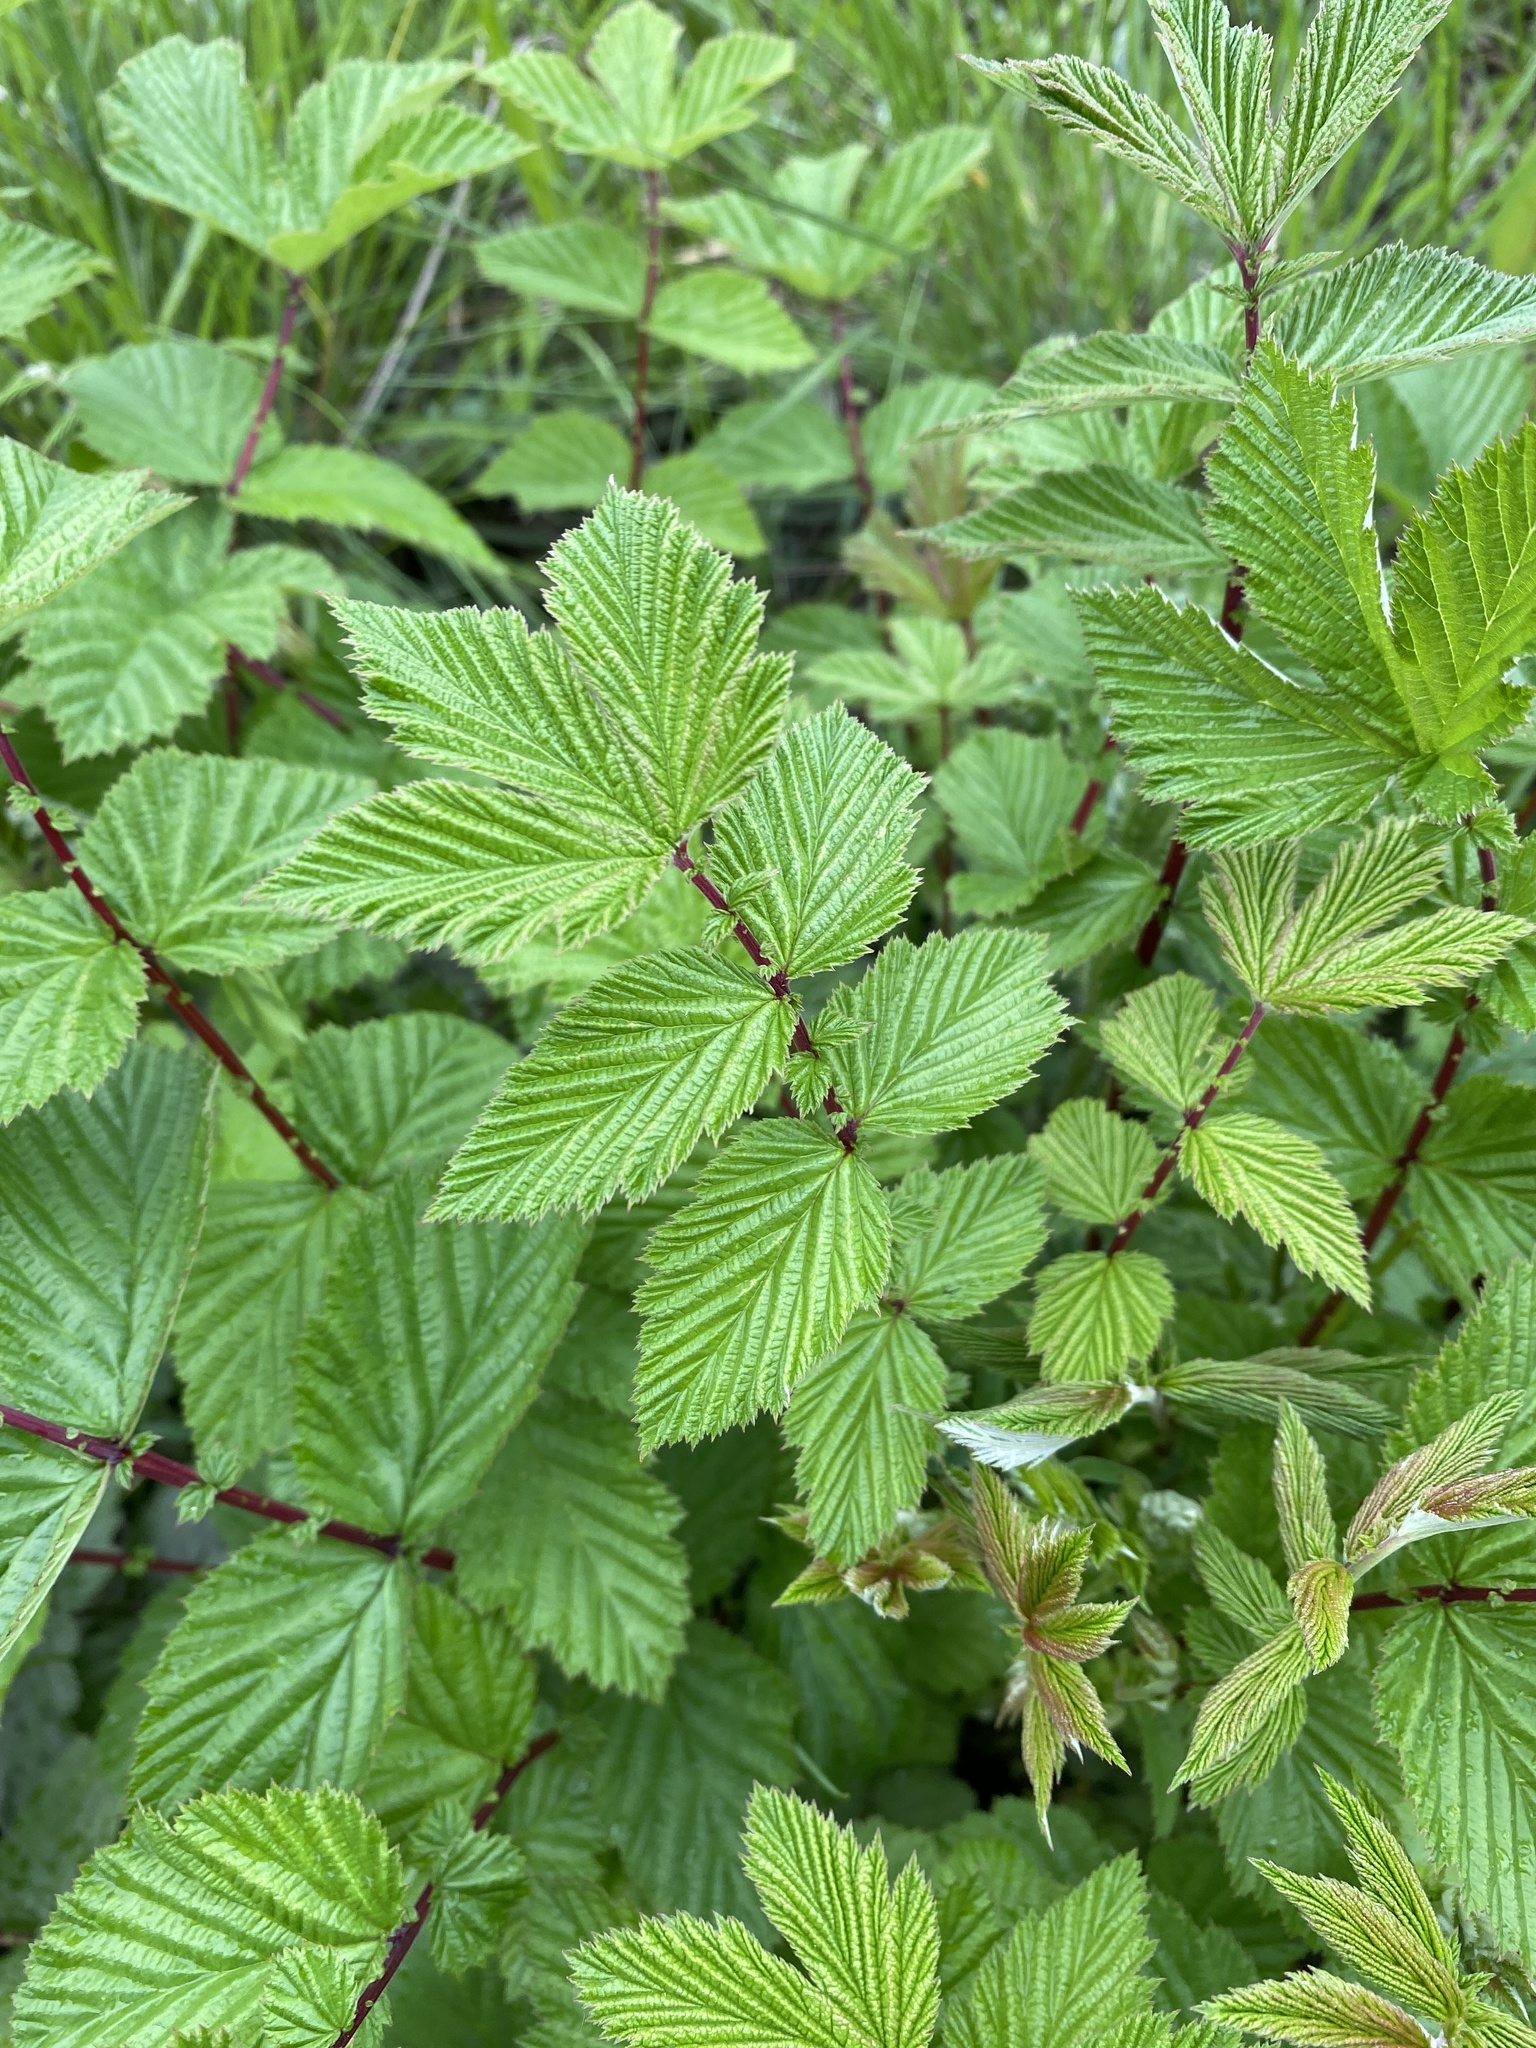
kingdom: Plantae
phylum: Tracheophyta
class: Magnoliopsida
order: Rosales
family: Rosaceae
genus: Filipendula
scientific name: Filipendula ulmaria
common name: Meadowsweet
